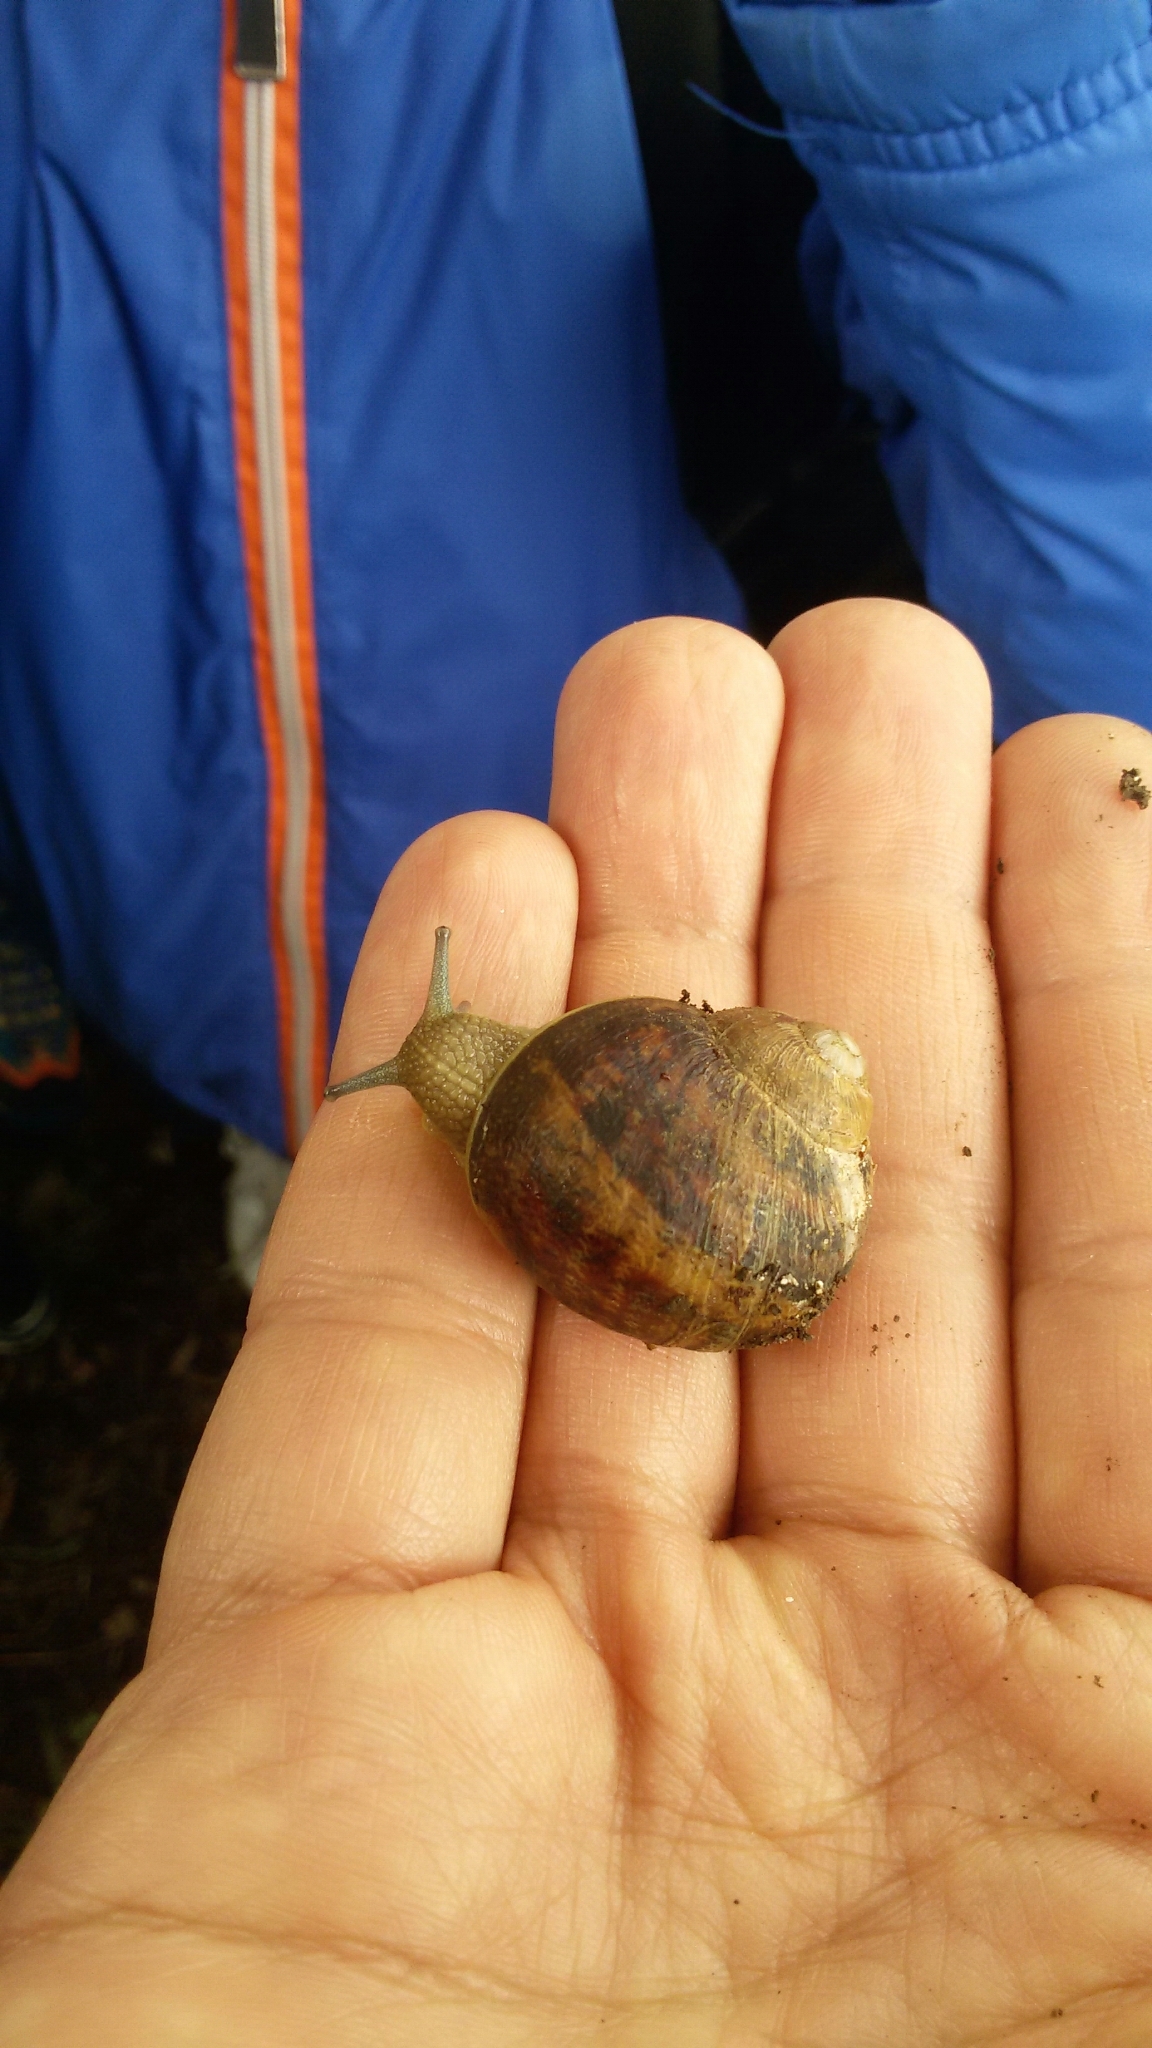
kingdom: Animalia
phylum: Mollusca
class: Gastropoda
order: Stylommatophora
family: Helicidae
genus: Cornu
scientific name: Cornu aspersum
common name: Brown garden snail
